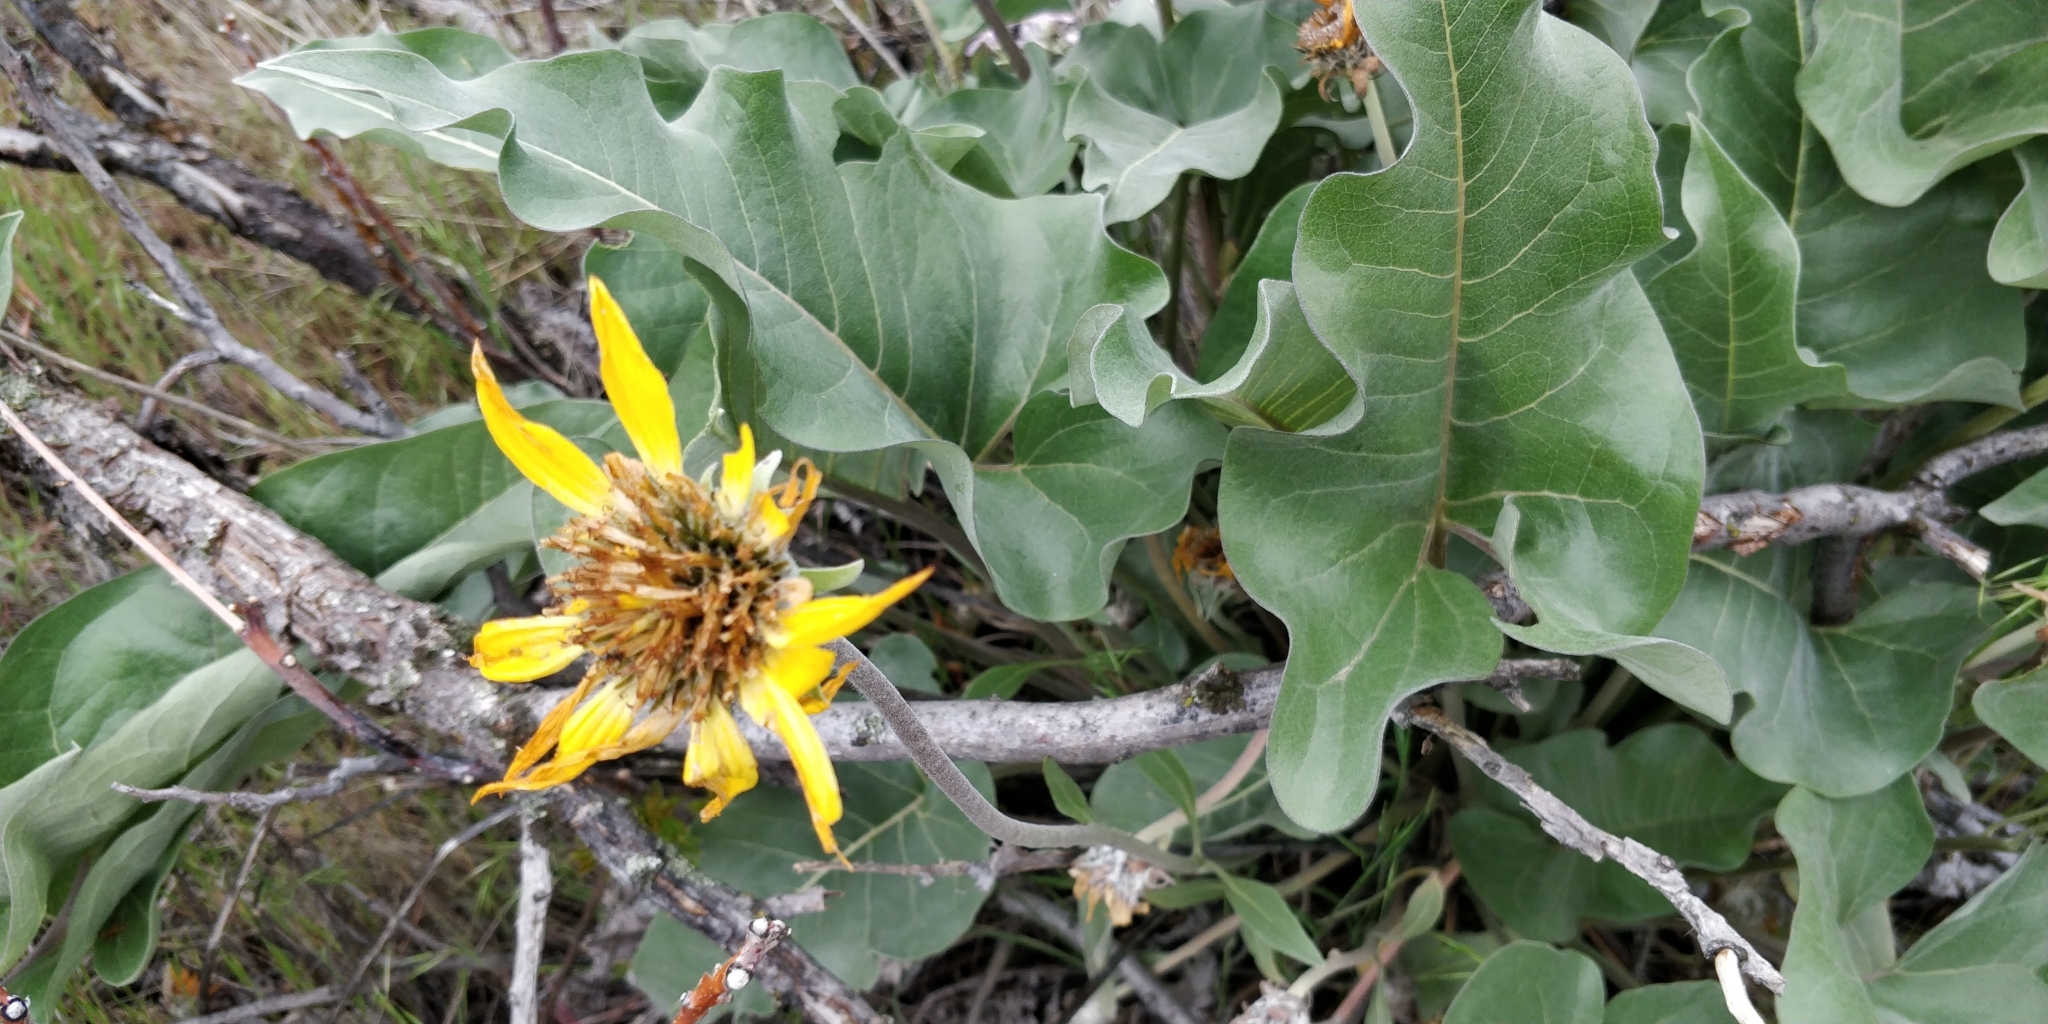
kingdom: Plantae
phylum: Tracheophyta
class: Magnoliopsida
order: Asterales
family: Asteraceae
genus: Wyethia
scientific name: Wyethia sagittata
